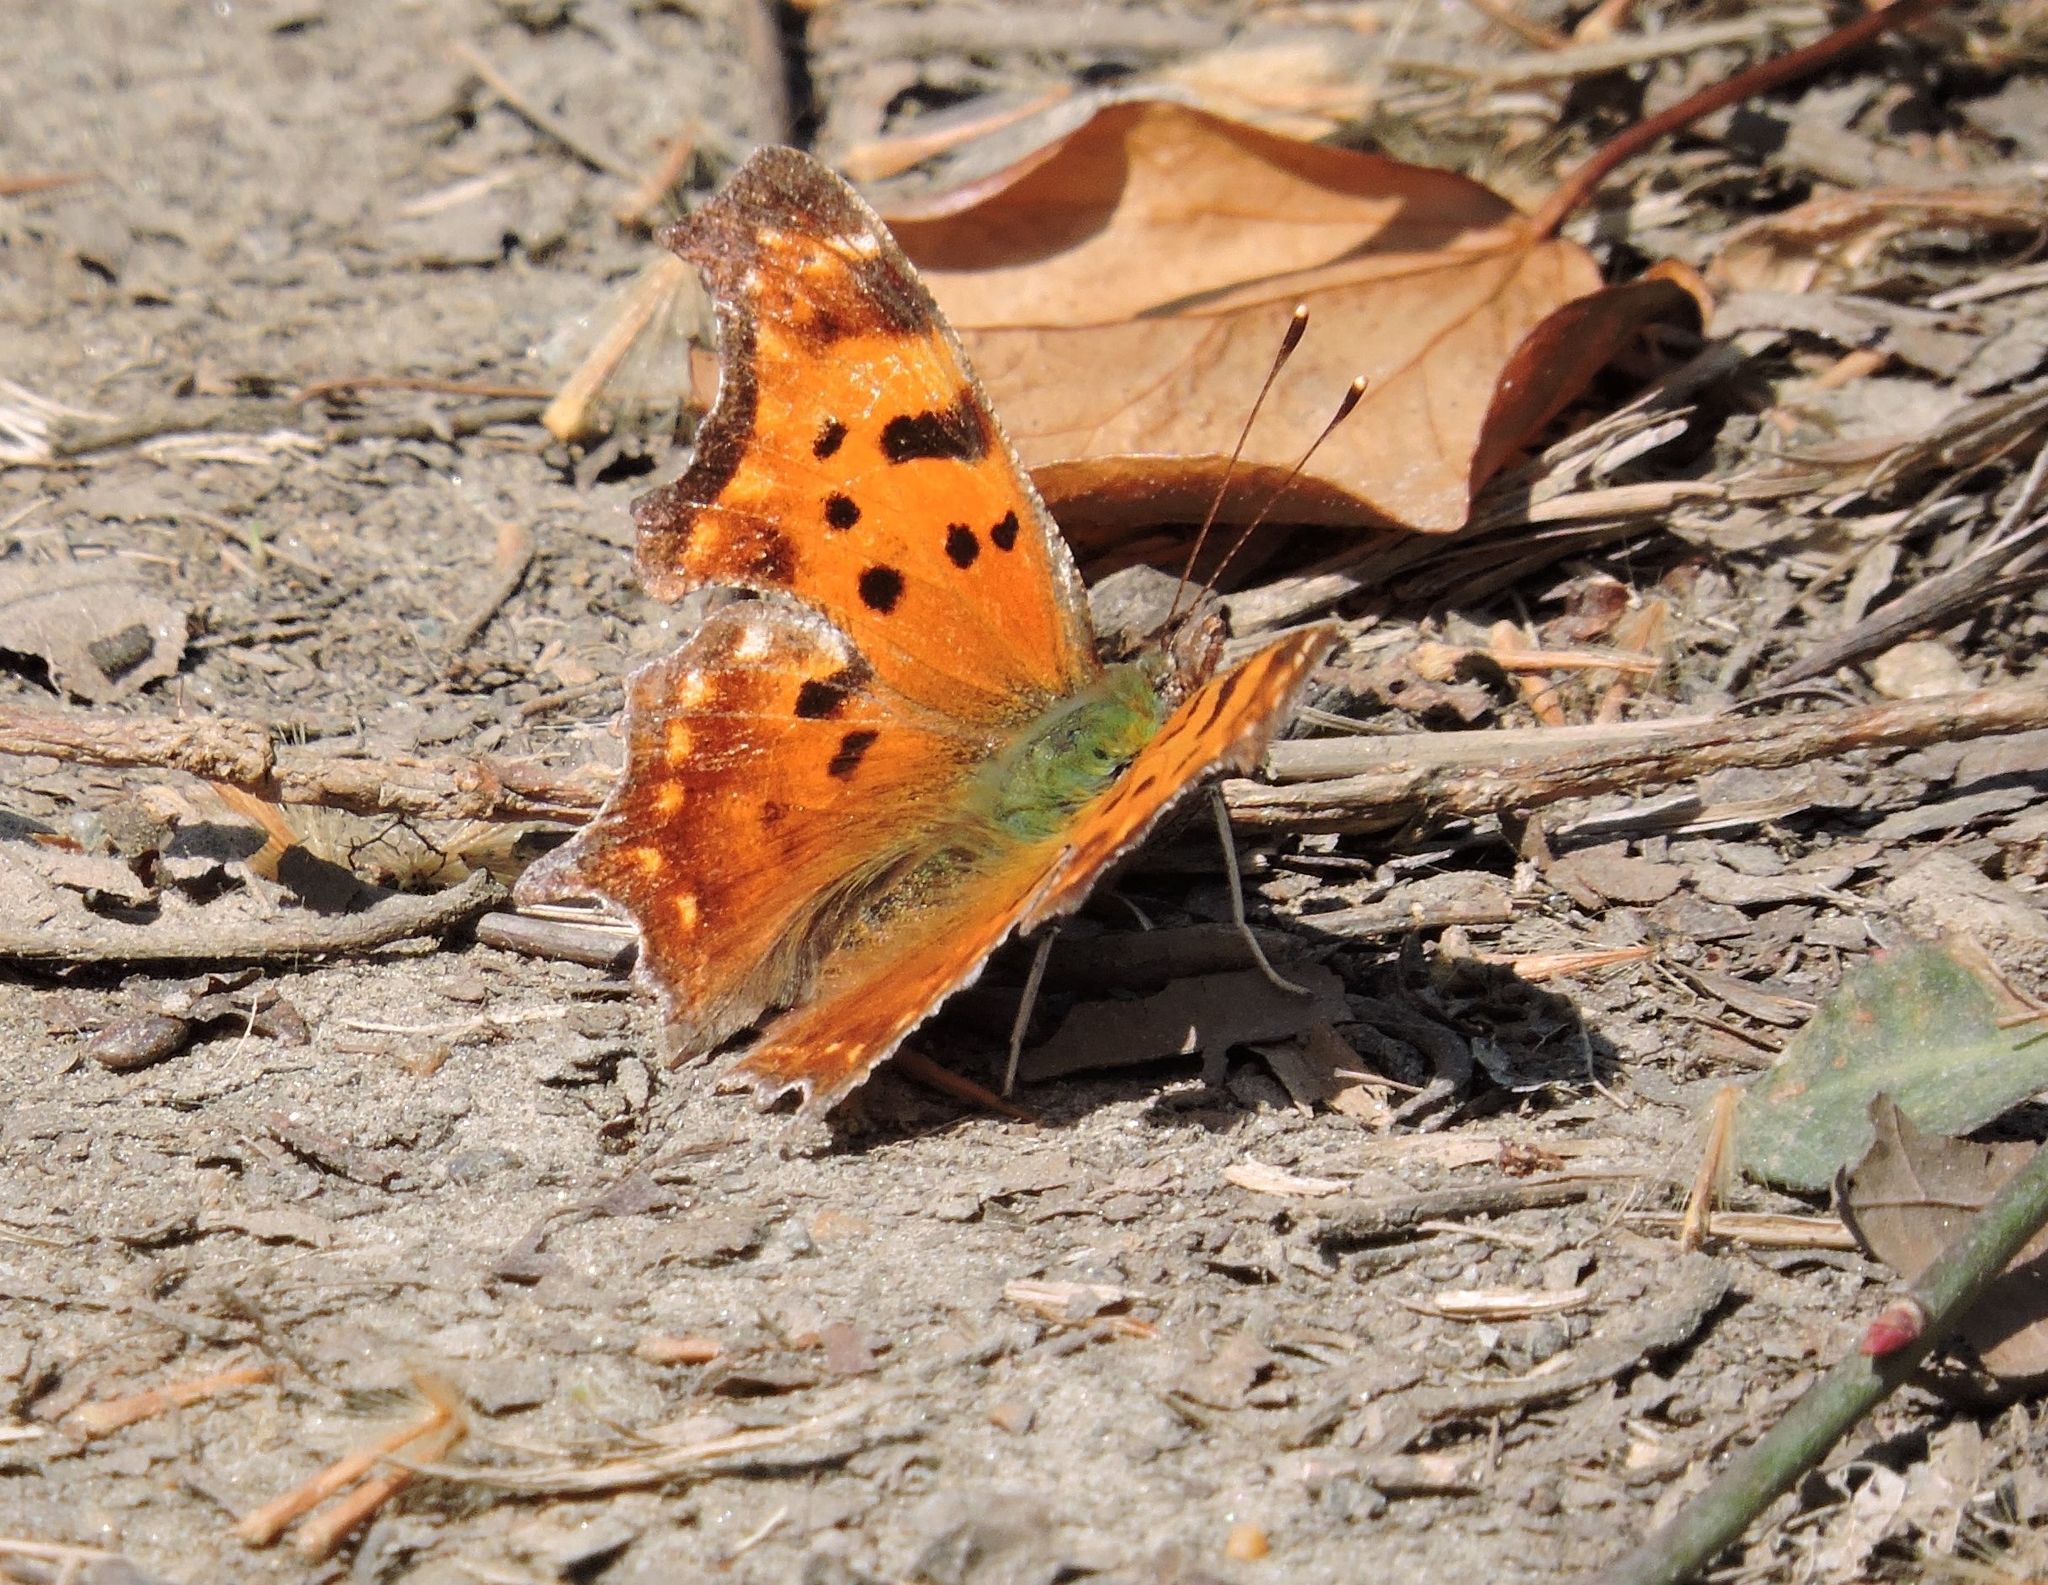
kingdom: Animalia
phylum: Arthropoda
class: Insecta
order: Lepidoptera
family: Nymphalidae
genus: Polygonia
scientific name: Polygonia comma
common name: Eastern comma
